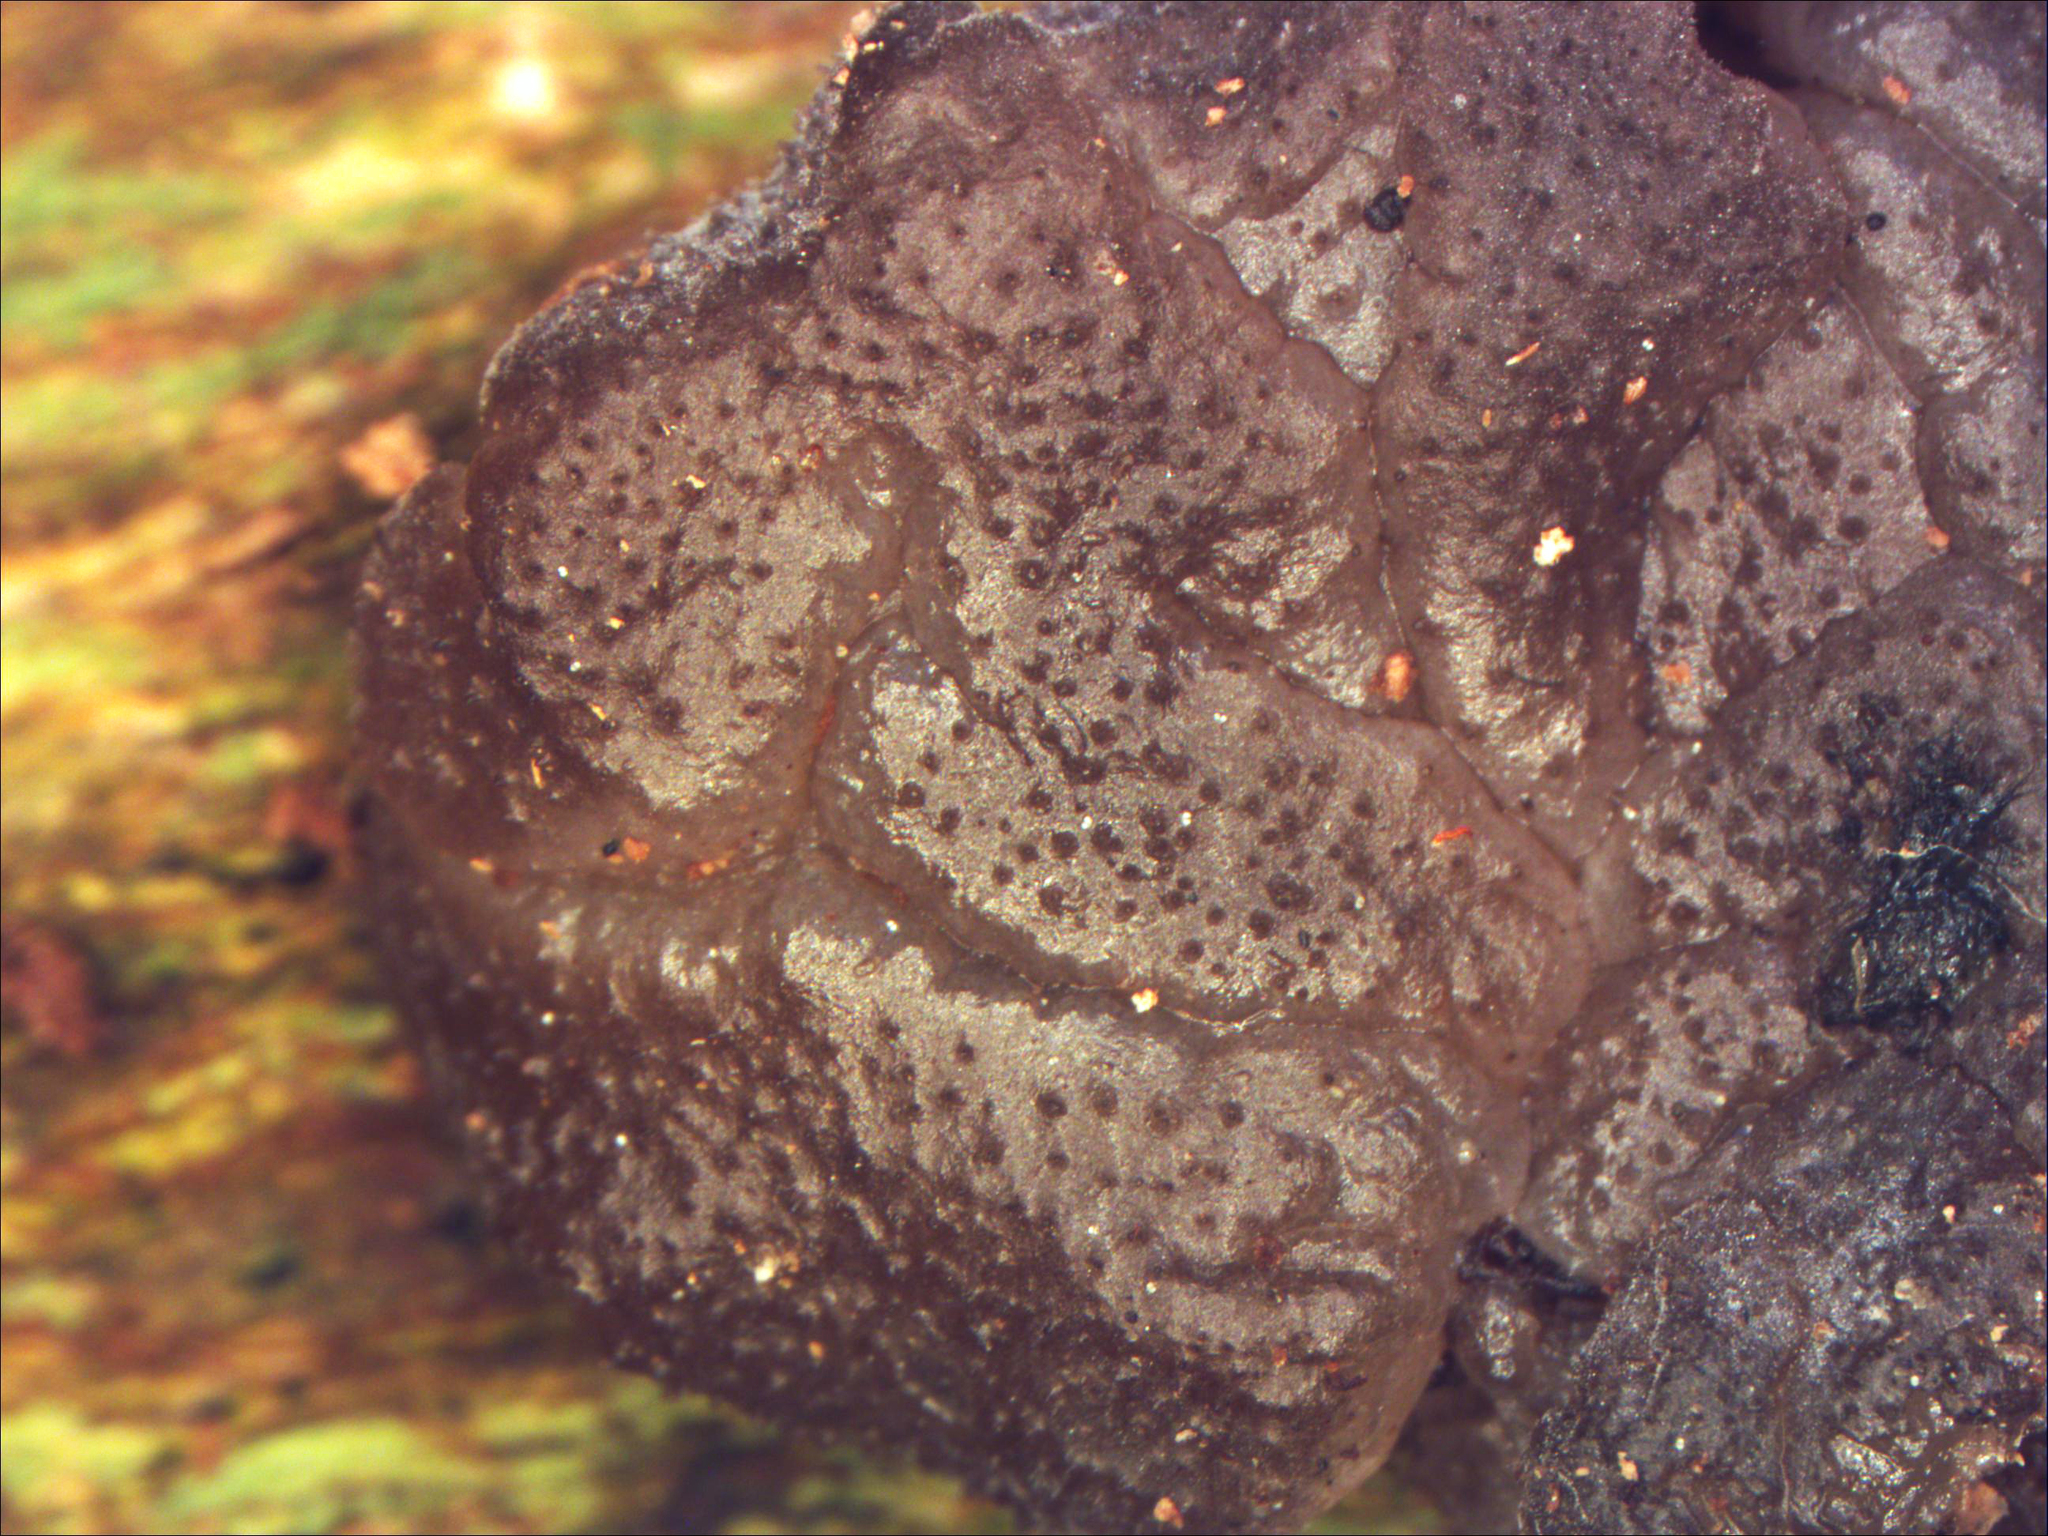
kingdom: Fungi
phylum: Basidiomycota
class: Agaricomycetes
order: Auriculariales
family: Auriculariaceae
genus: Tremellochaete
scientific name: Tremellochaete
